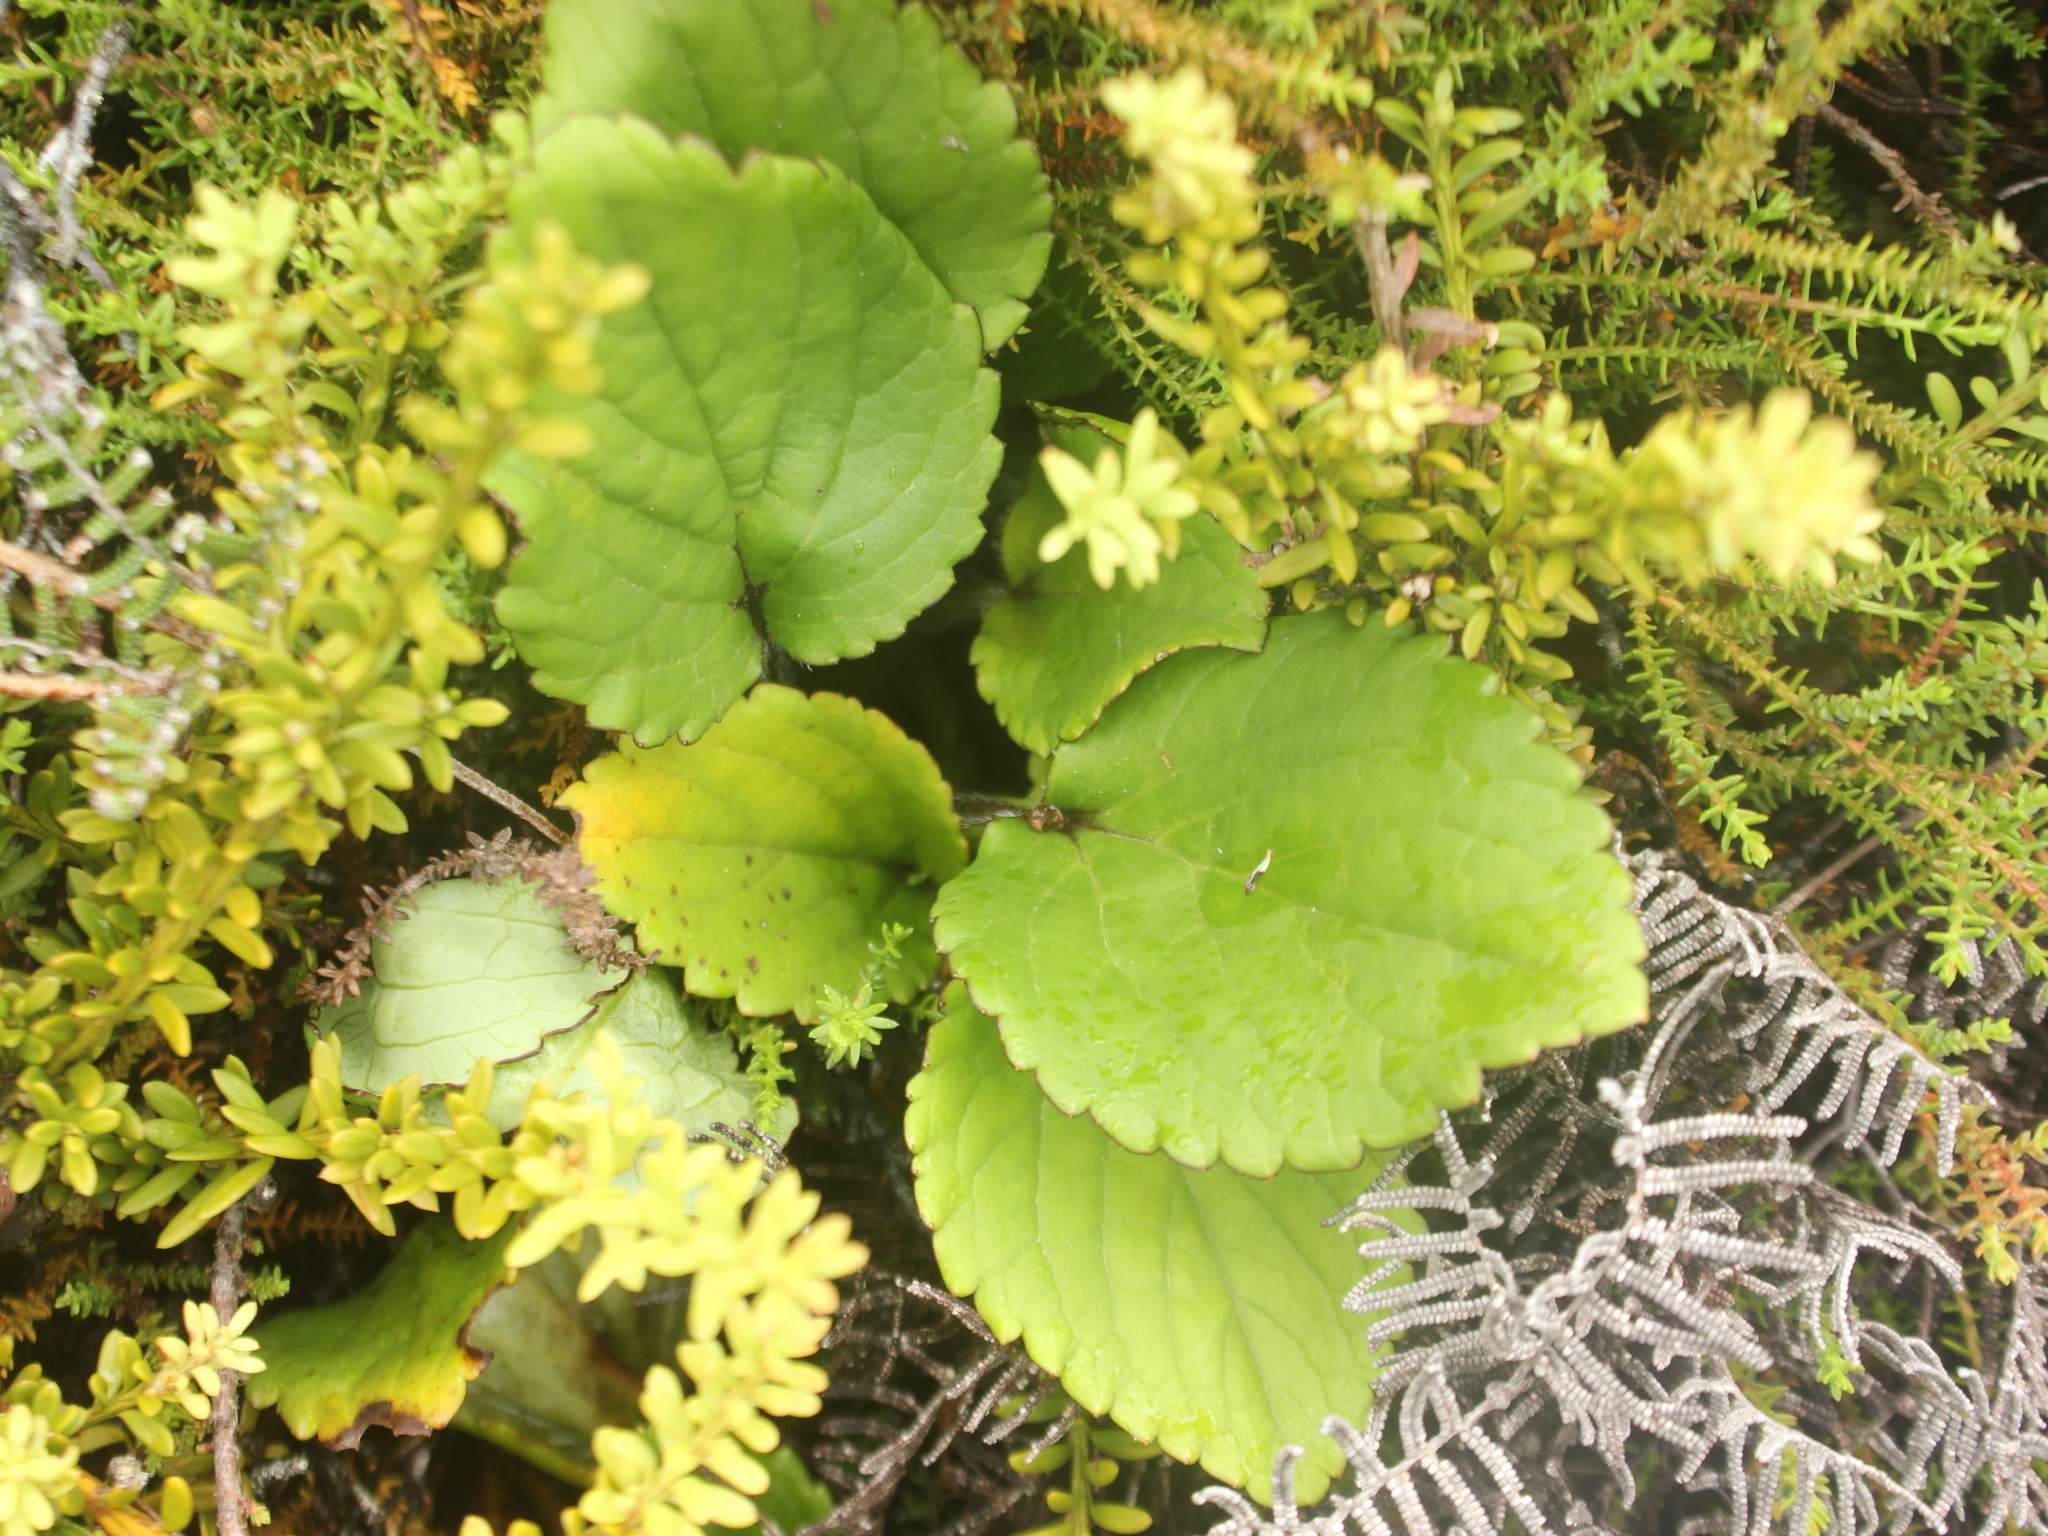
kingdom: Plantae
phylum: Tracheophyta
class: Magnoliopsida
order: Lamiales
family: Plantaginaceae
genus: Ourisia
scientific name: Ourisia macrophylla
